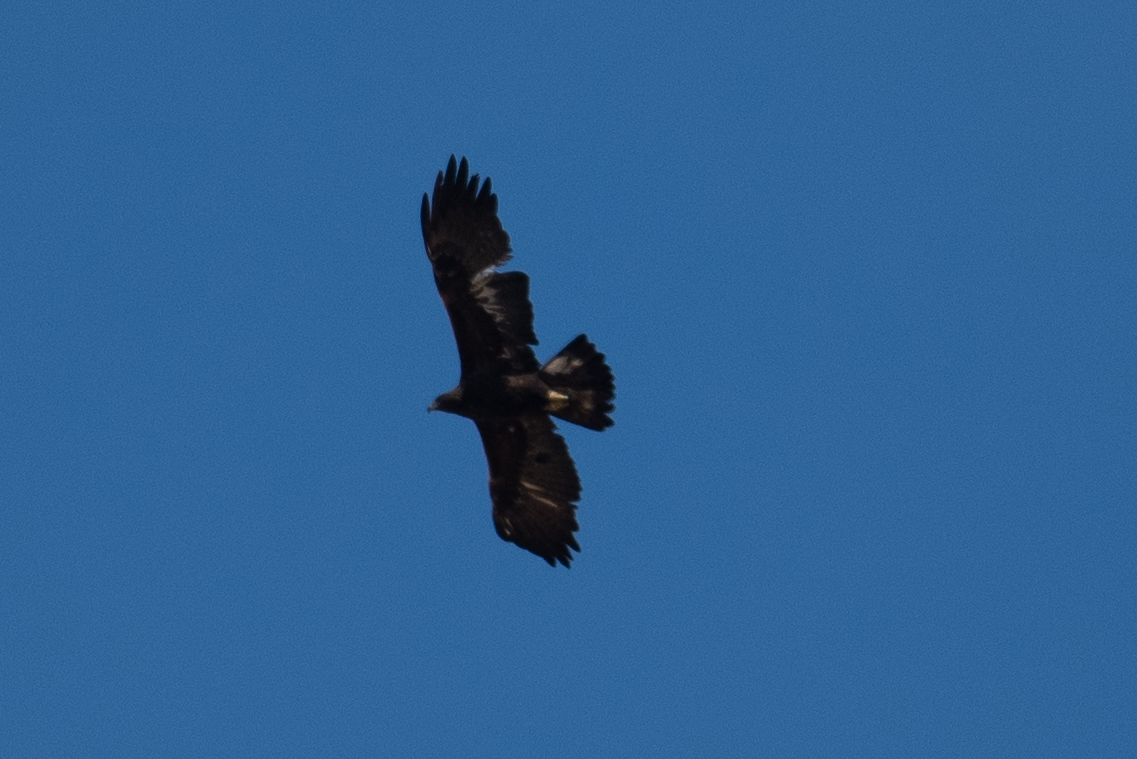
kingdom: Animalia
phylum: Chordata
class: Aves
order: Accipitriformes
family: Accipitridae
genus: Aquila
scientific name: Aquila chrysaetos
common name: Golden eagle
